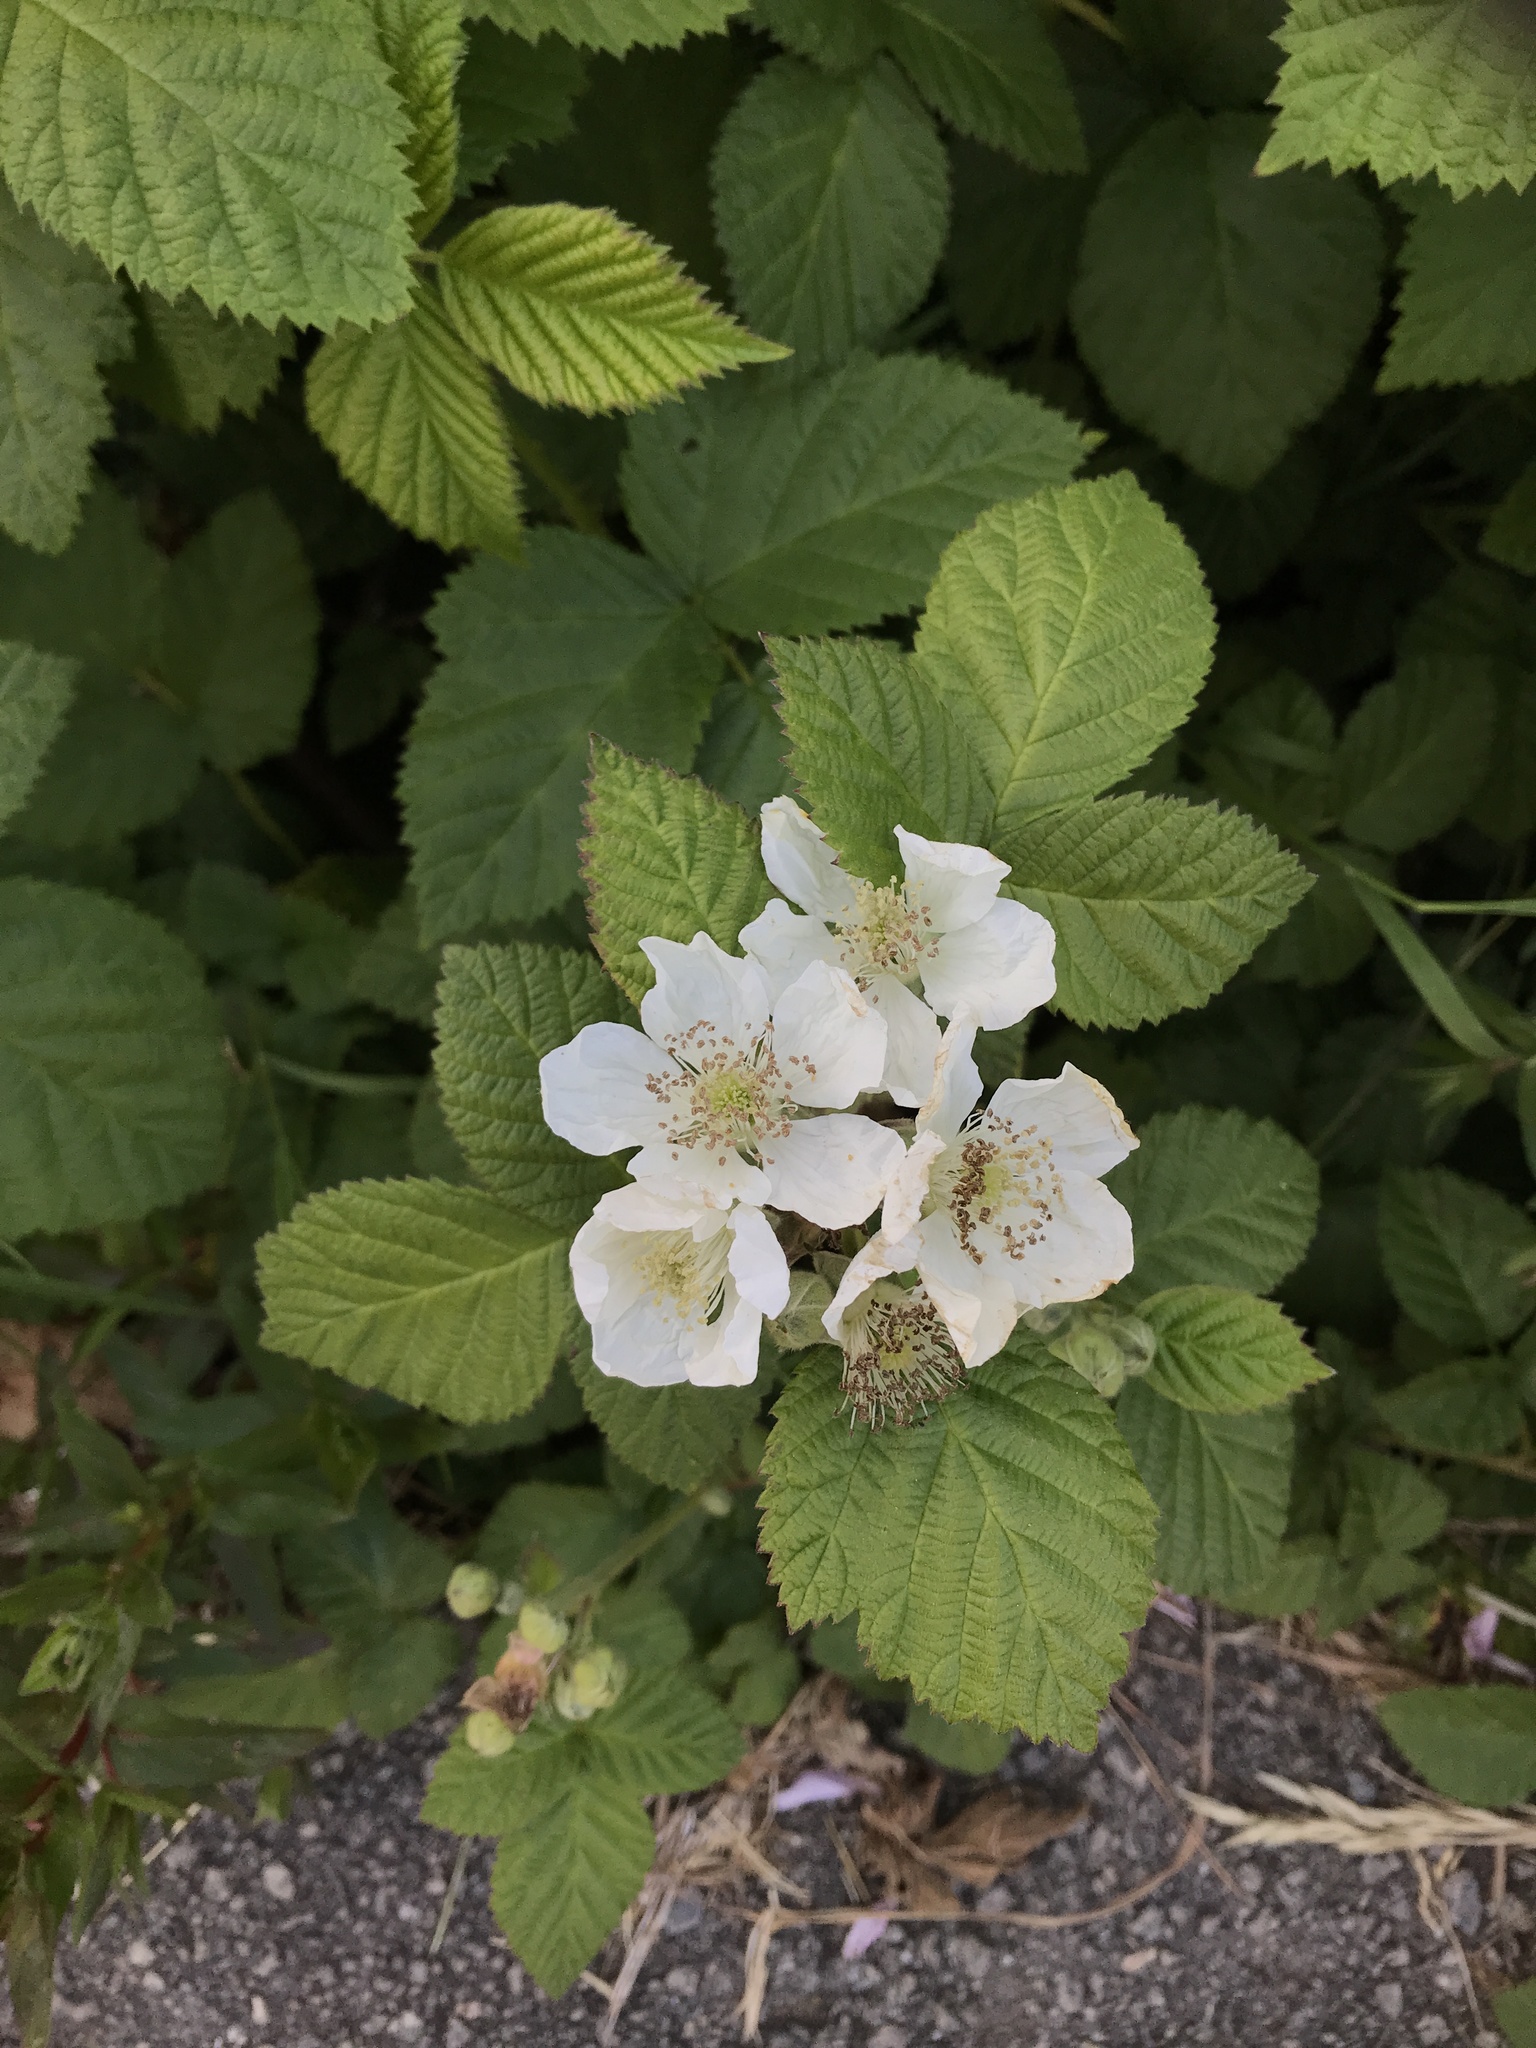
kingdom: Plantae
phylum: Tracheophyta
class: Magnoliopsida
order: Rosales
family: Rosaceae
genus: Rubus
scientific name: Rubus armeniacus
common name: Himalayan blackberry
